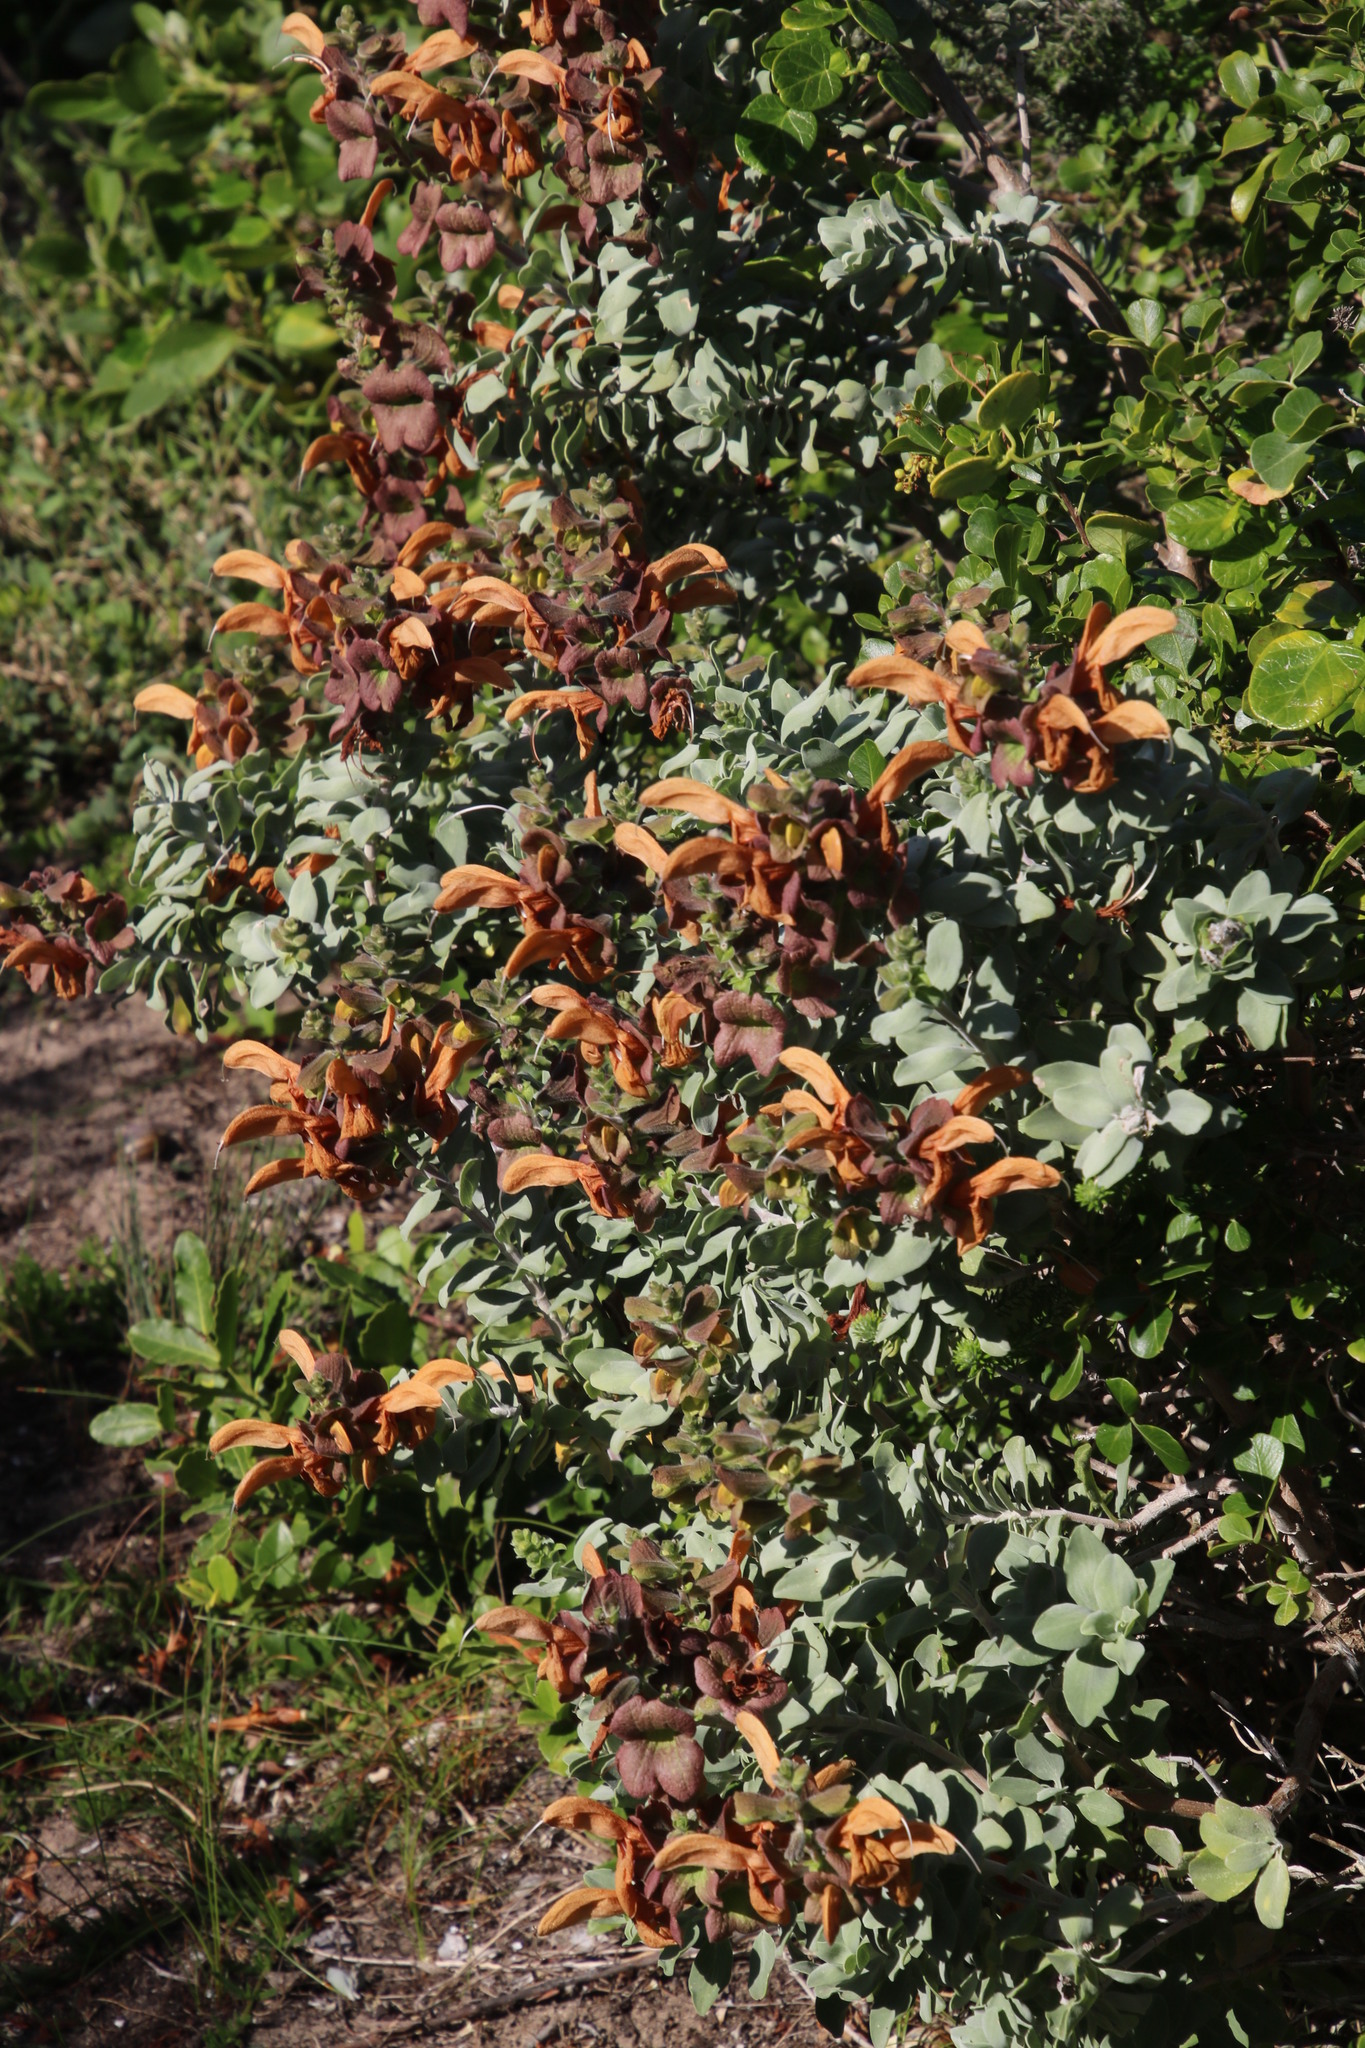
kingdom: Plantae
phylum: Tracheophyta
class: Magnoliopsida
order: Lamiales
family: Lamiaceae
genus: Salvia
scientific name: Salvia aurea
